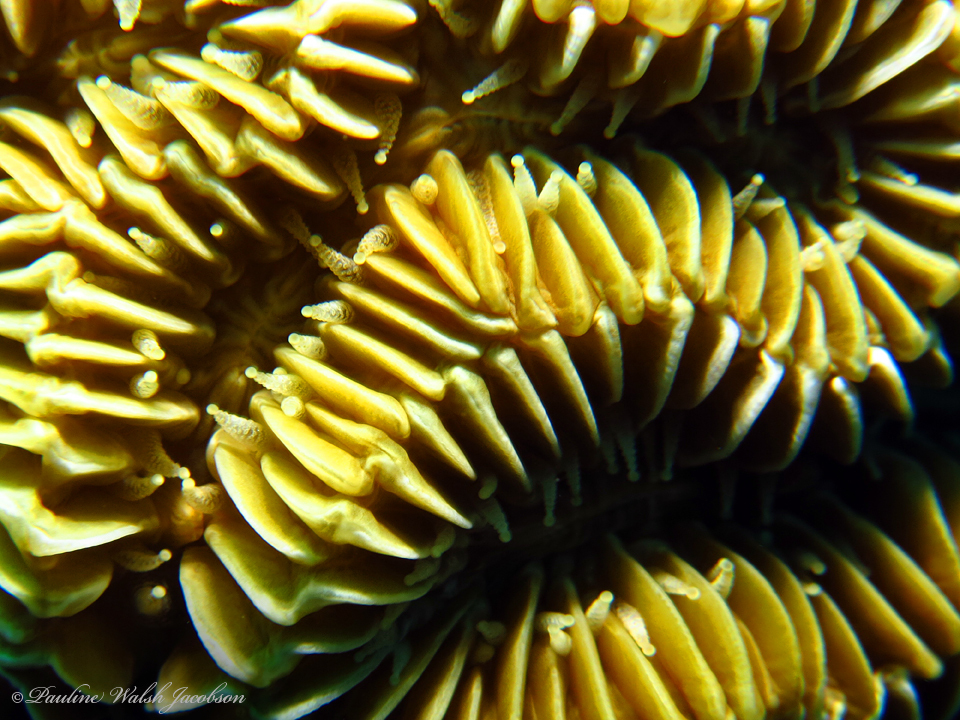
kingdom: Animalia
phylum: Cnidaria
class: Anthozoa
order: Scleractinia
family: Meandrinidae
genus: Meandrina
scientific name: Meandrina meandrites
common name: Maze coral
